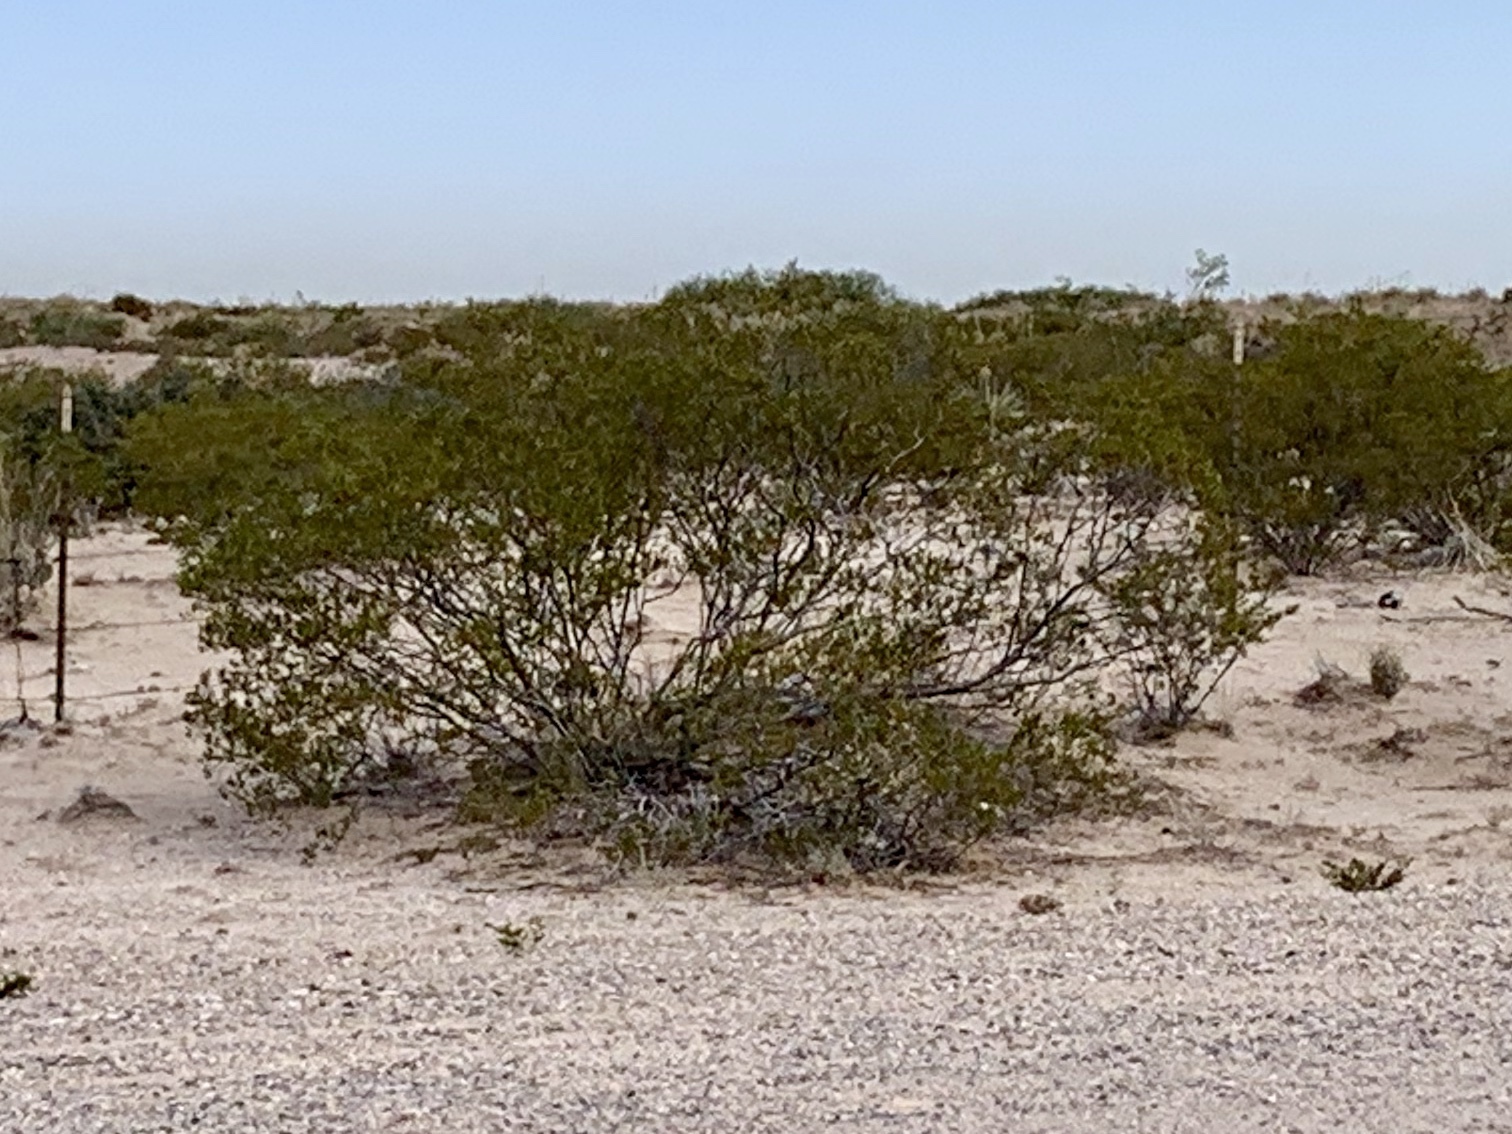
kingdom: Plantae
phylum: Tracheophyta
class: Magnoliopsida
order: Zygophyllales
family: Zygophyllaceae
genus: Larrea
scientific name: Larrea tridentata
